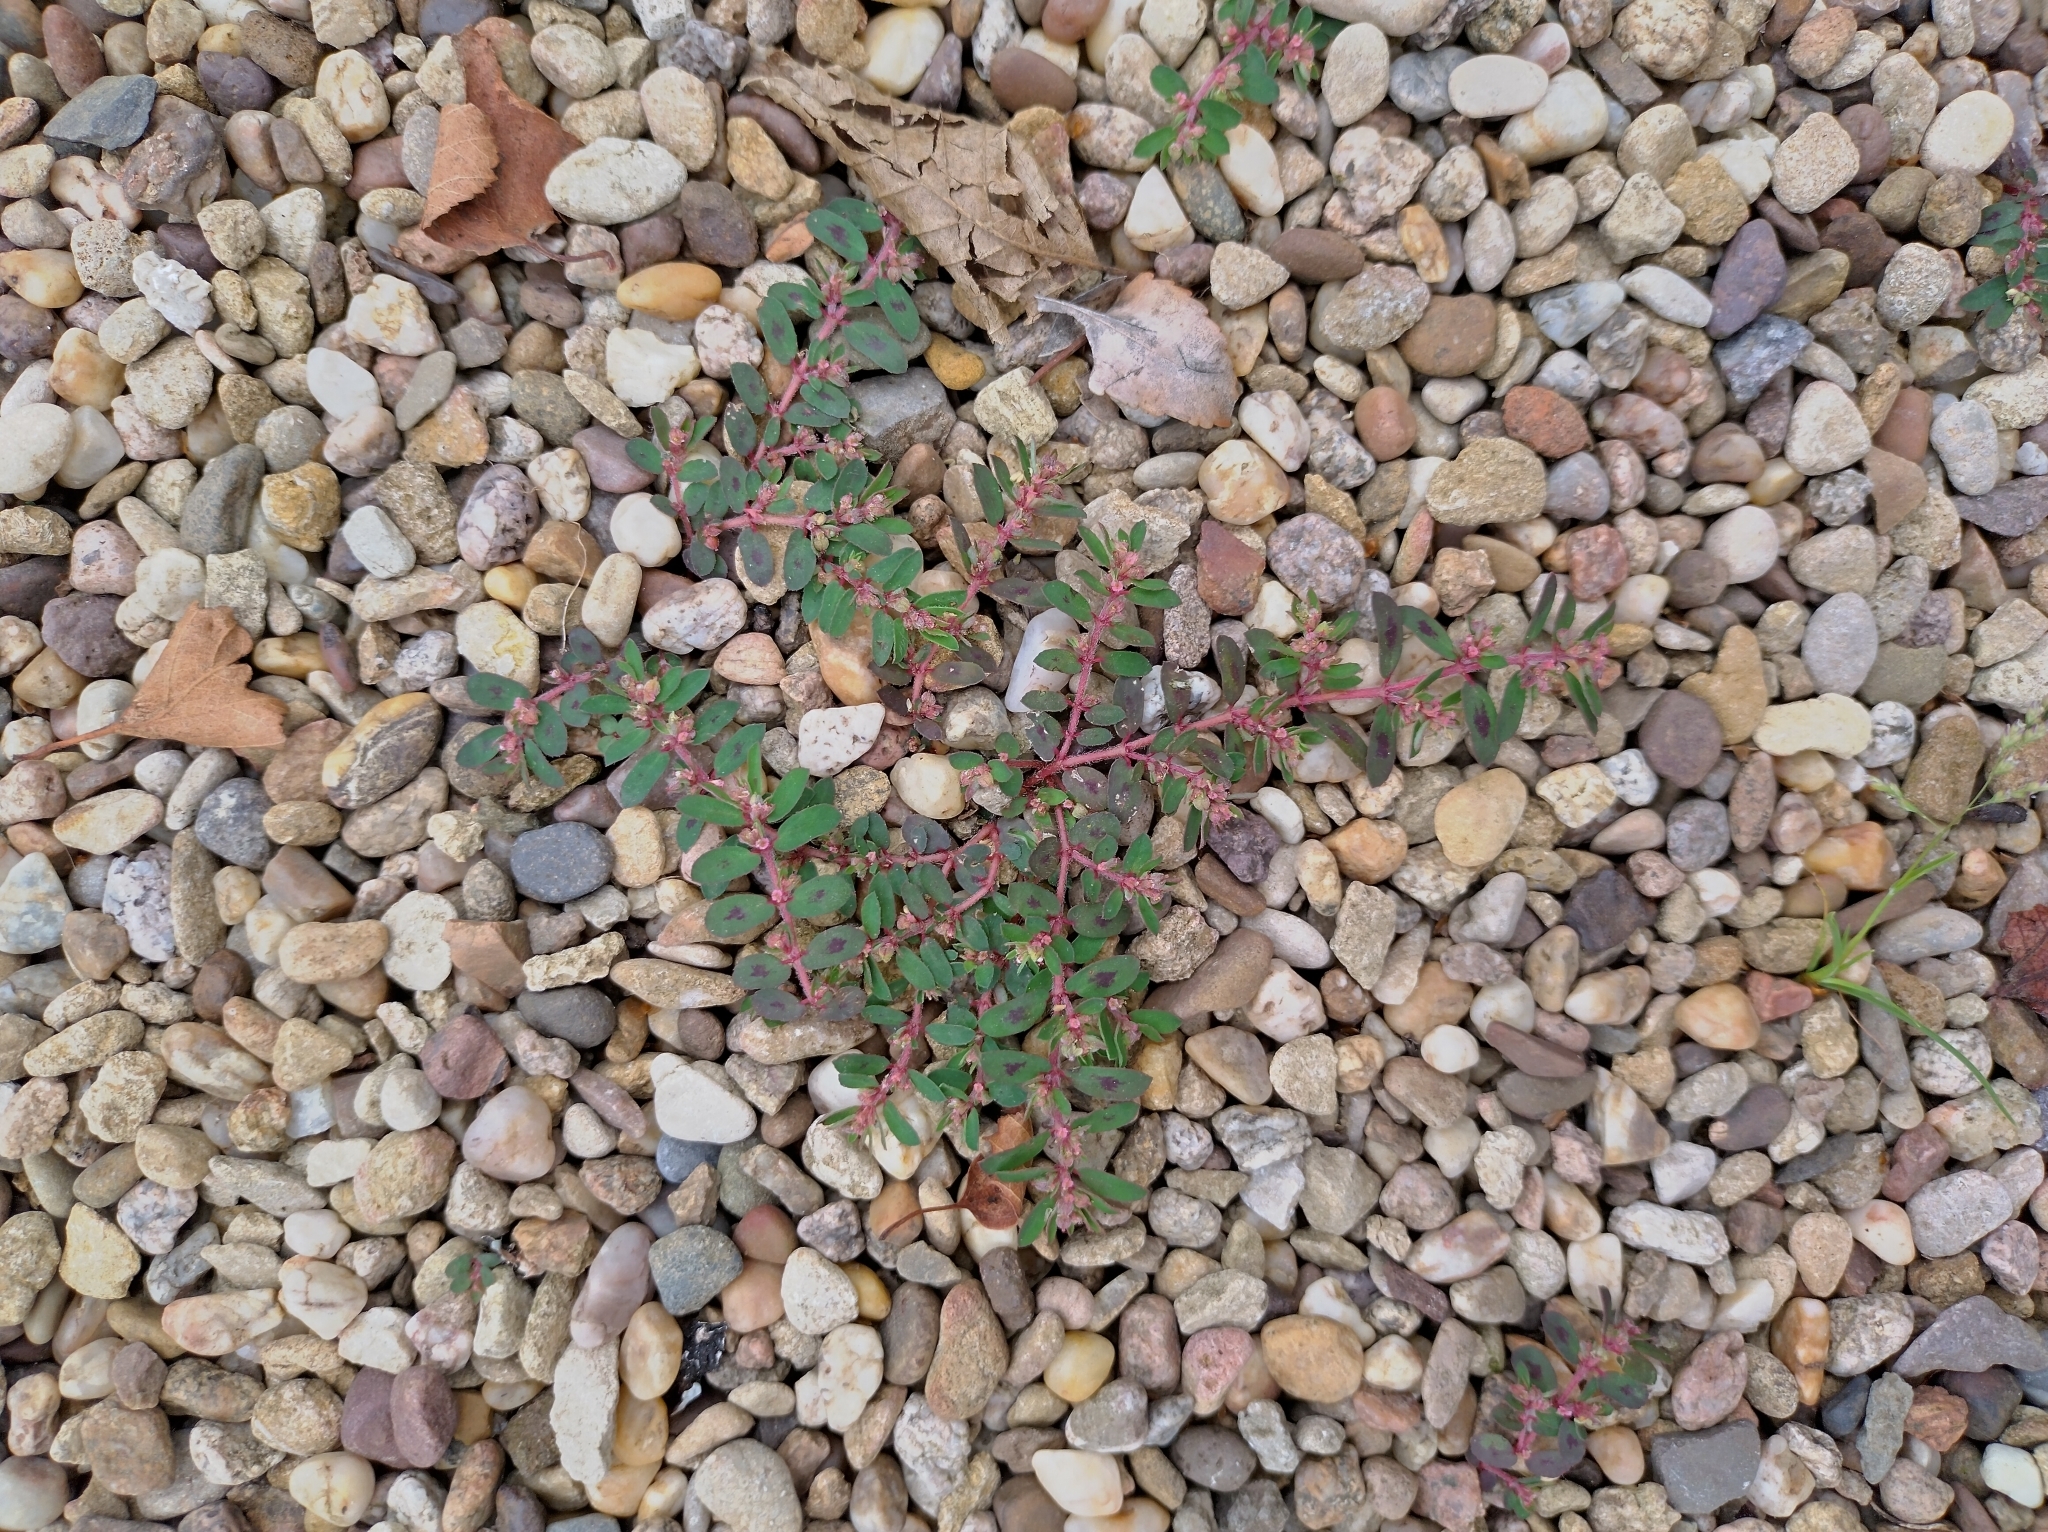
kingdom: Plantae
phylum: Tracheophyta
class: Magnoliopsida
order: Malpighiales
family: Euphorbiaceae
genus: Euphorbia
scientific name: Euphorbia maculata
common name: Spotted spurge
